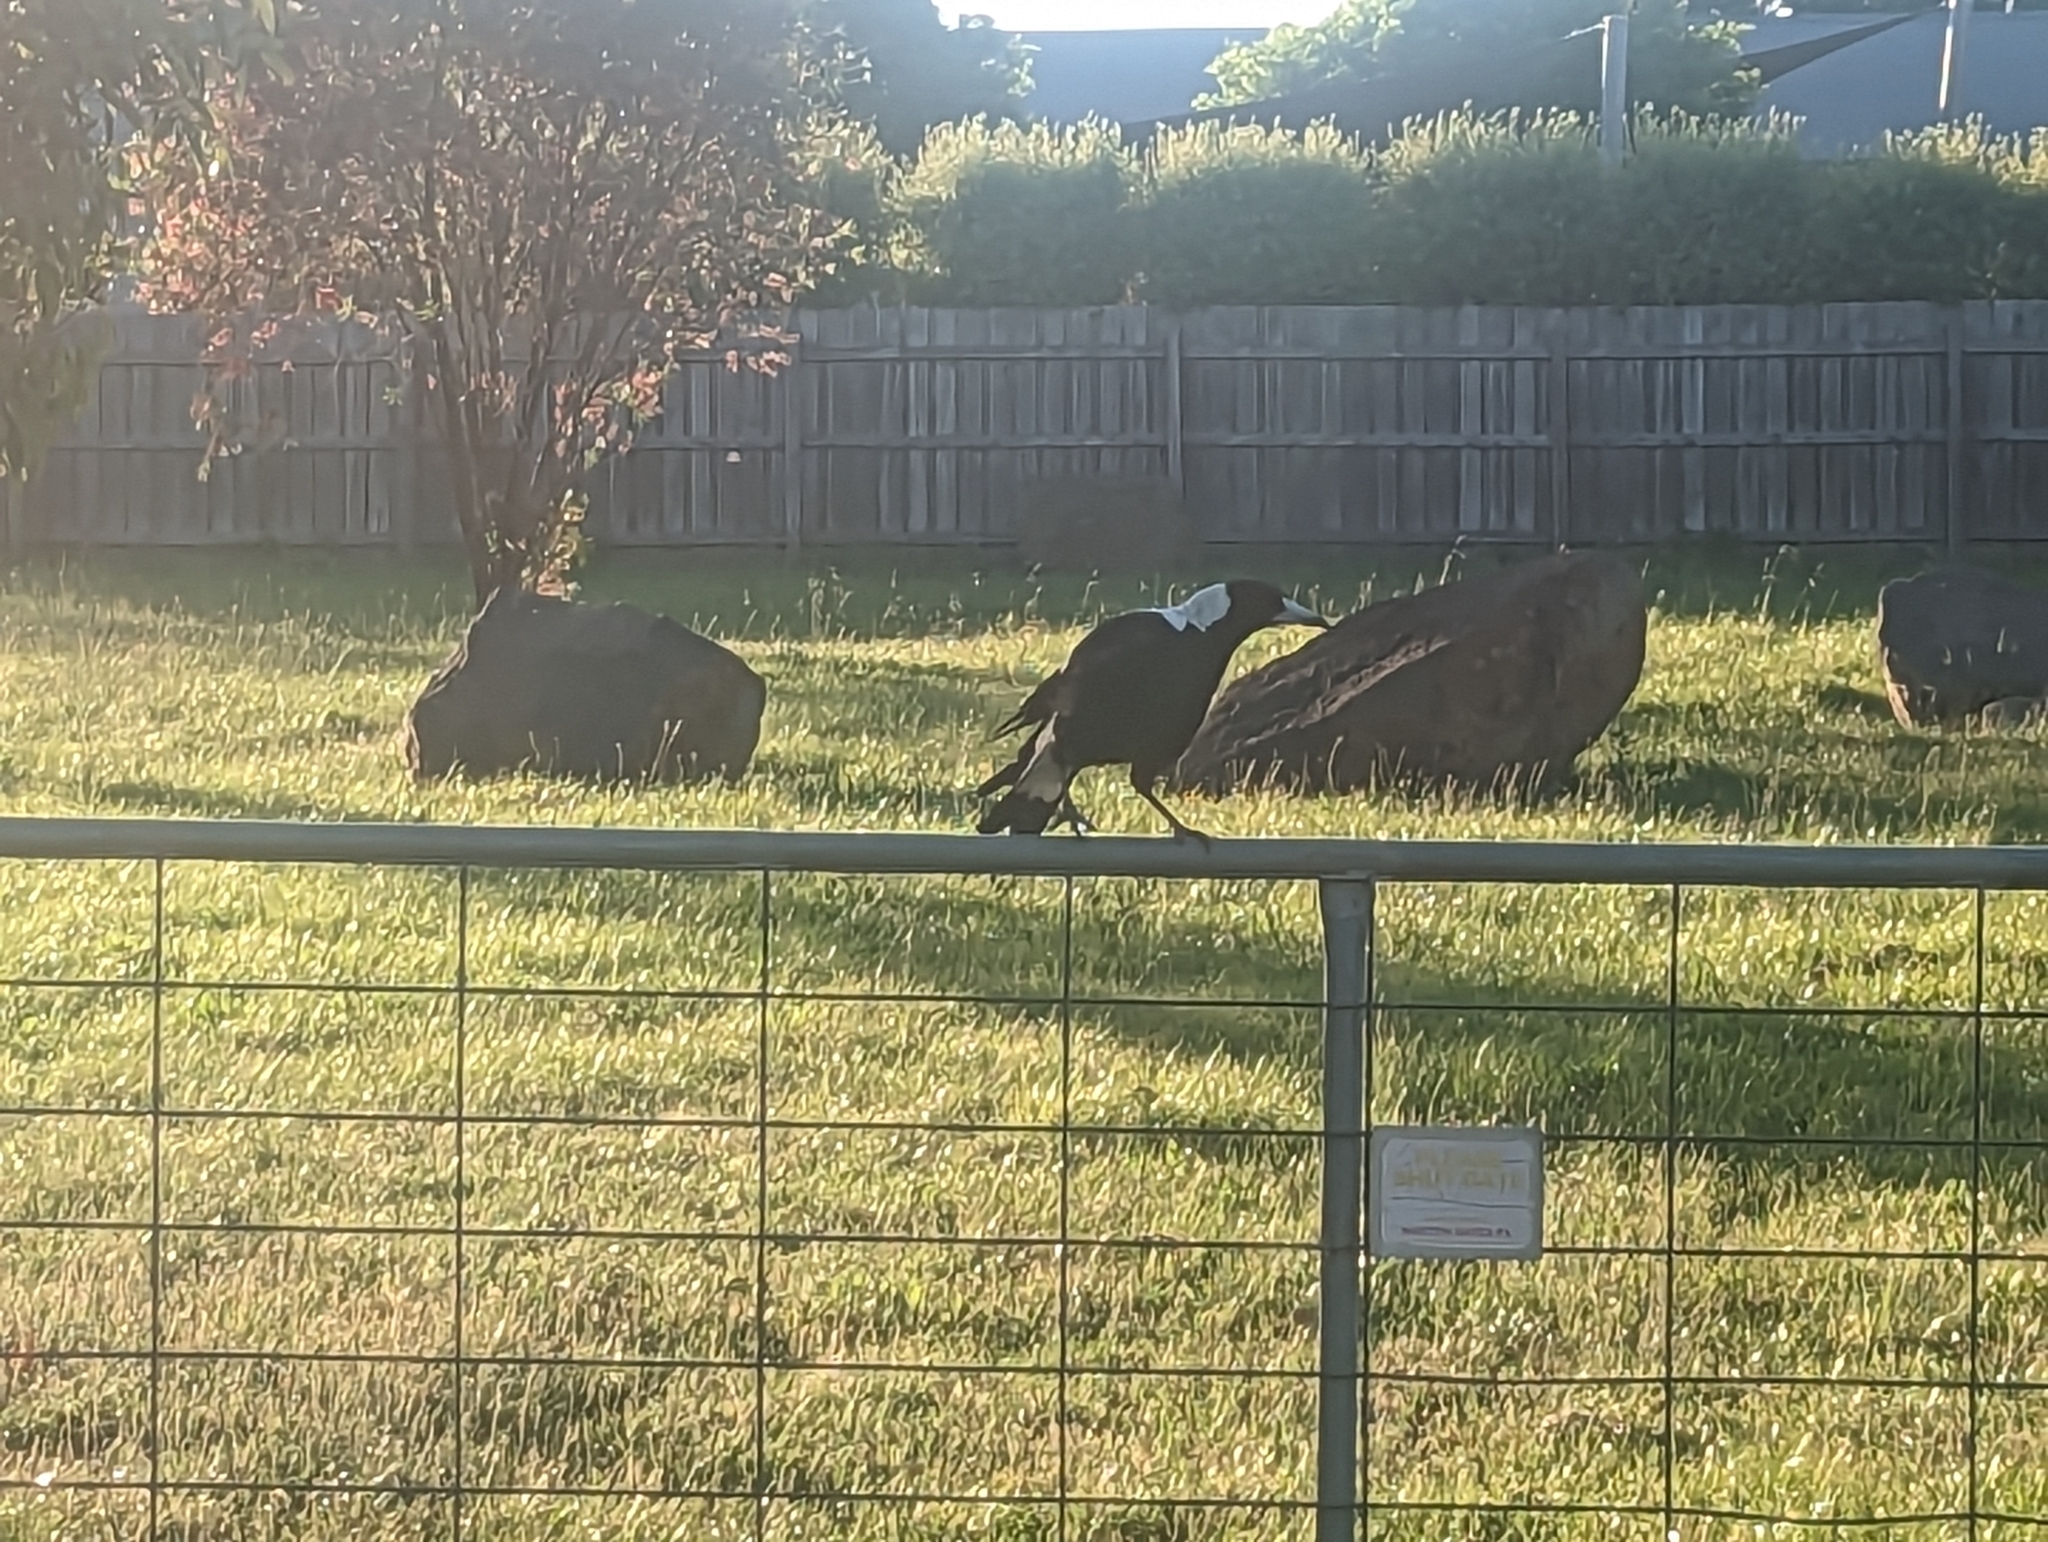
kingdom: Animalia
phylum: Chordata
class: Aves
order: Passeriformes
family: Cracticidae
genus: Gymnorhina
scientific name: Gymnorhina tibicen
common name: Australian magpie
